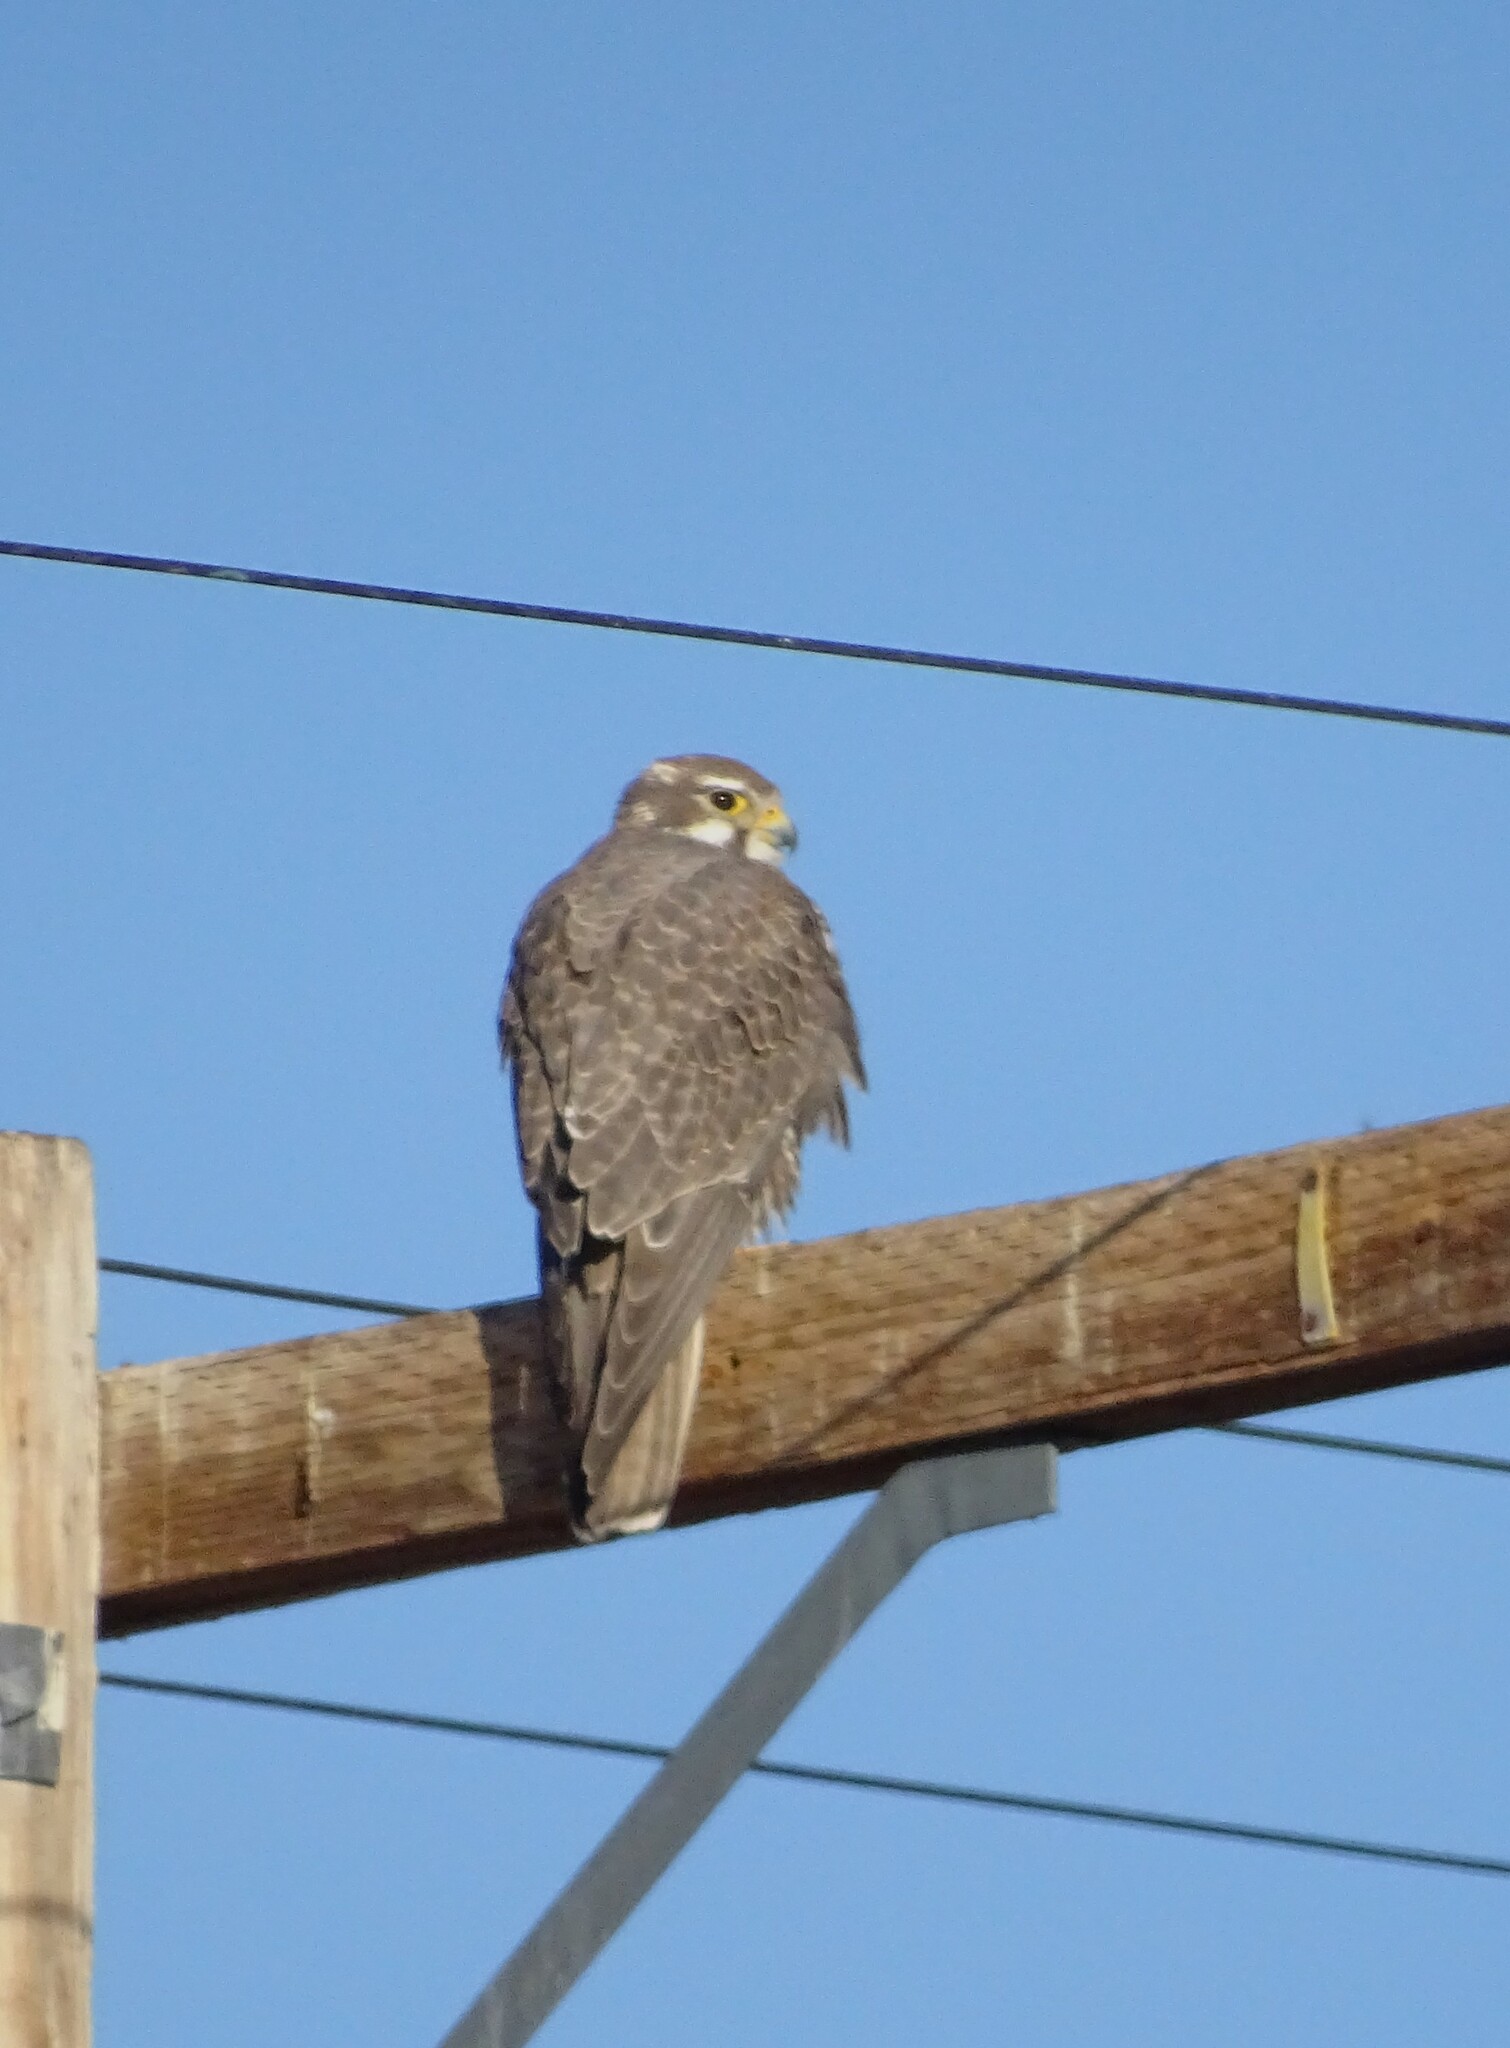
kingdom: Animalia
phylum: Chordata
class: Aves
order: Falconiformes
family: Falconidae
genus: Falco
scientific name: Falco mexicanus
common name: Prairie falcon
